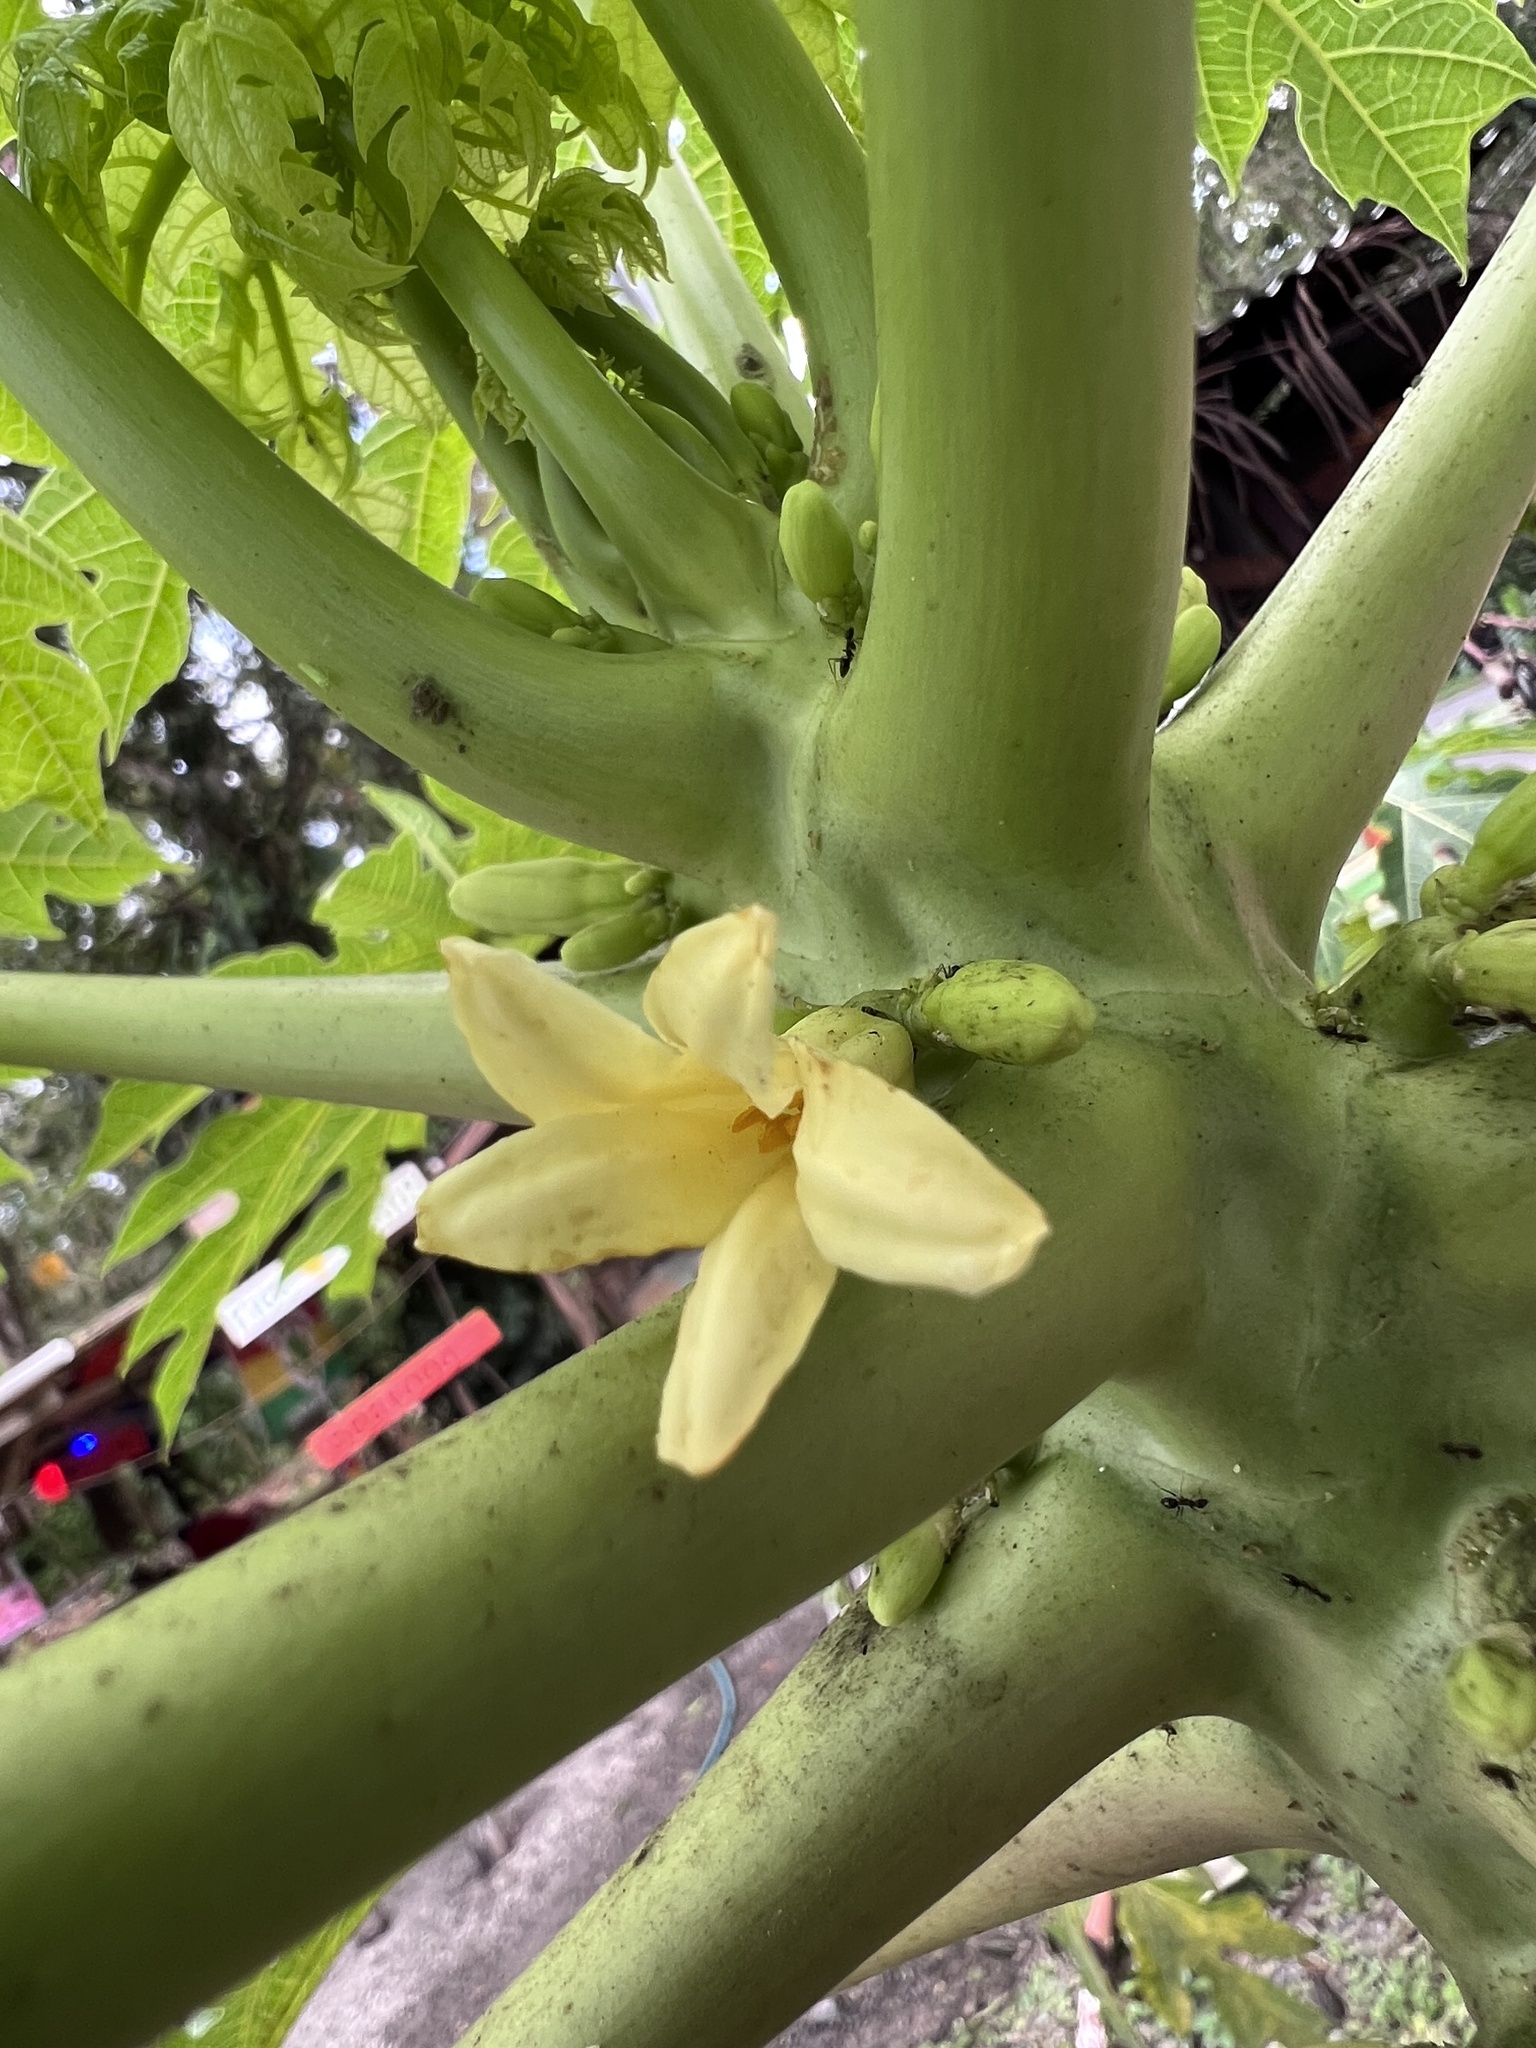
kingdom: Plantae
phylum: Tracheophyta
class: Magnoliopsida
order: Brassicales
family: Caricaceae
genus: Carica
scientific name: Carica papaya
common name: Papaya
